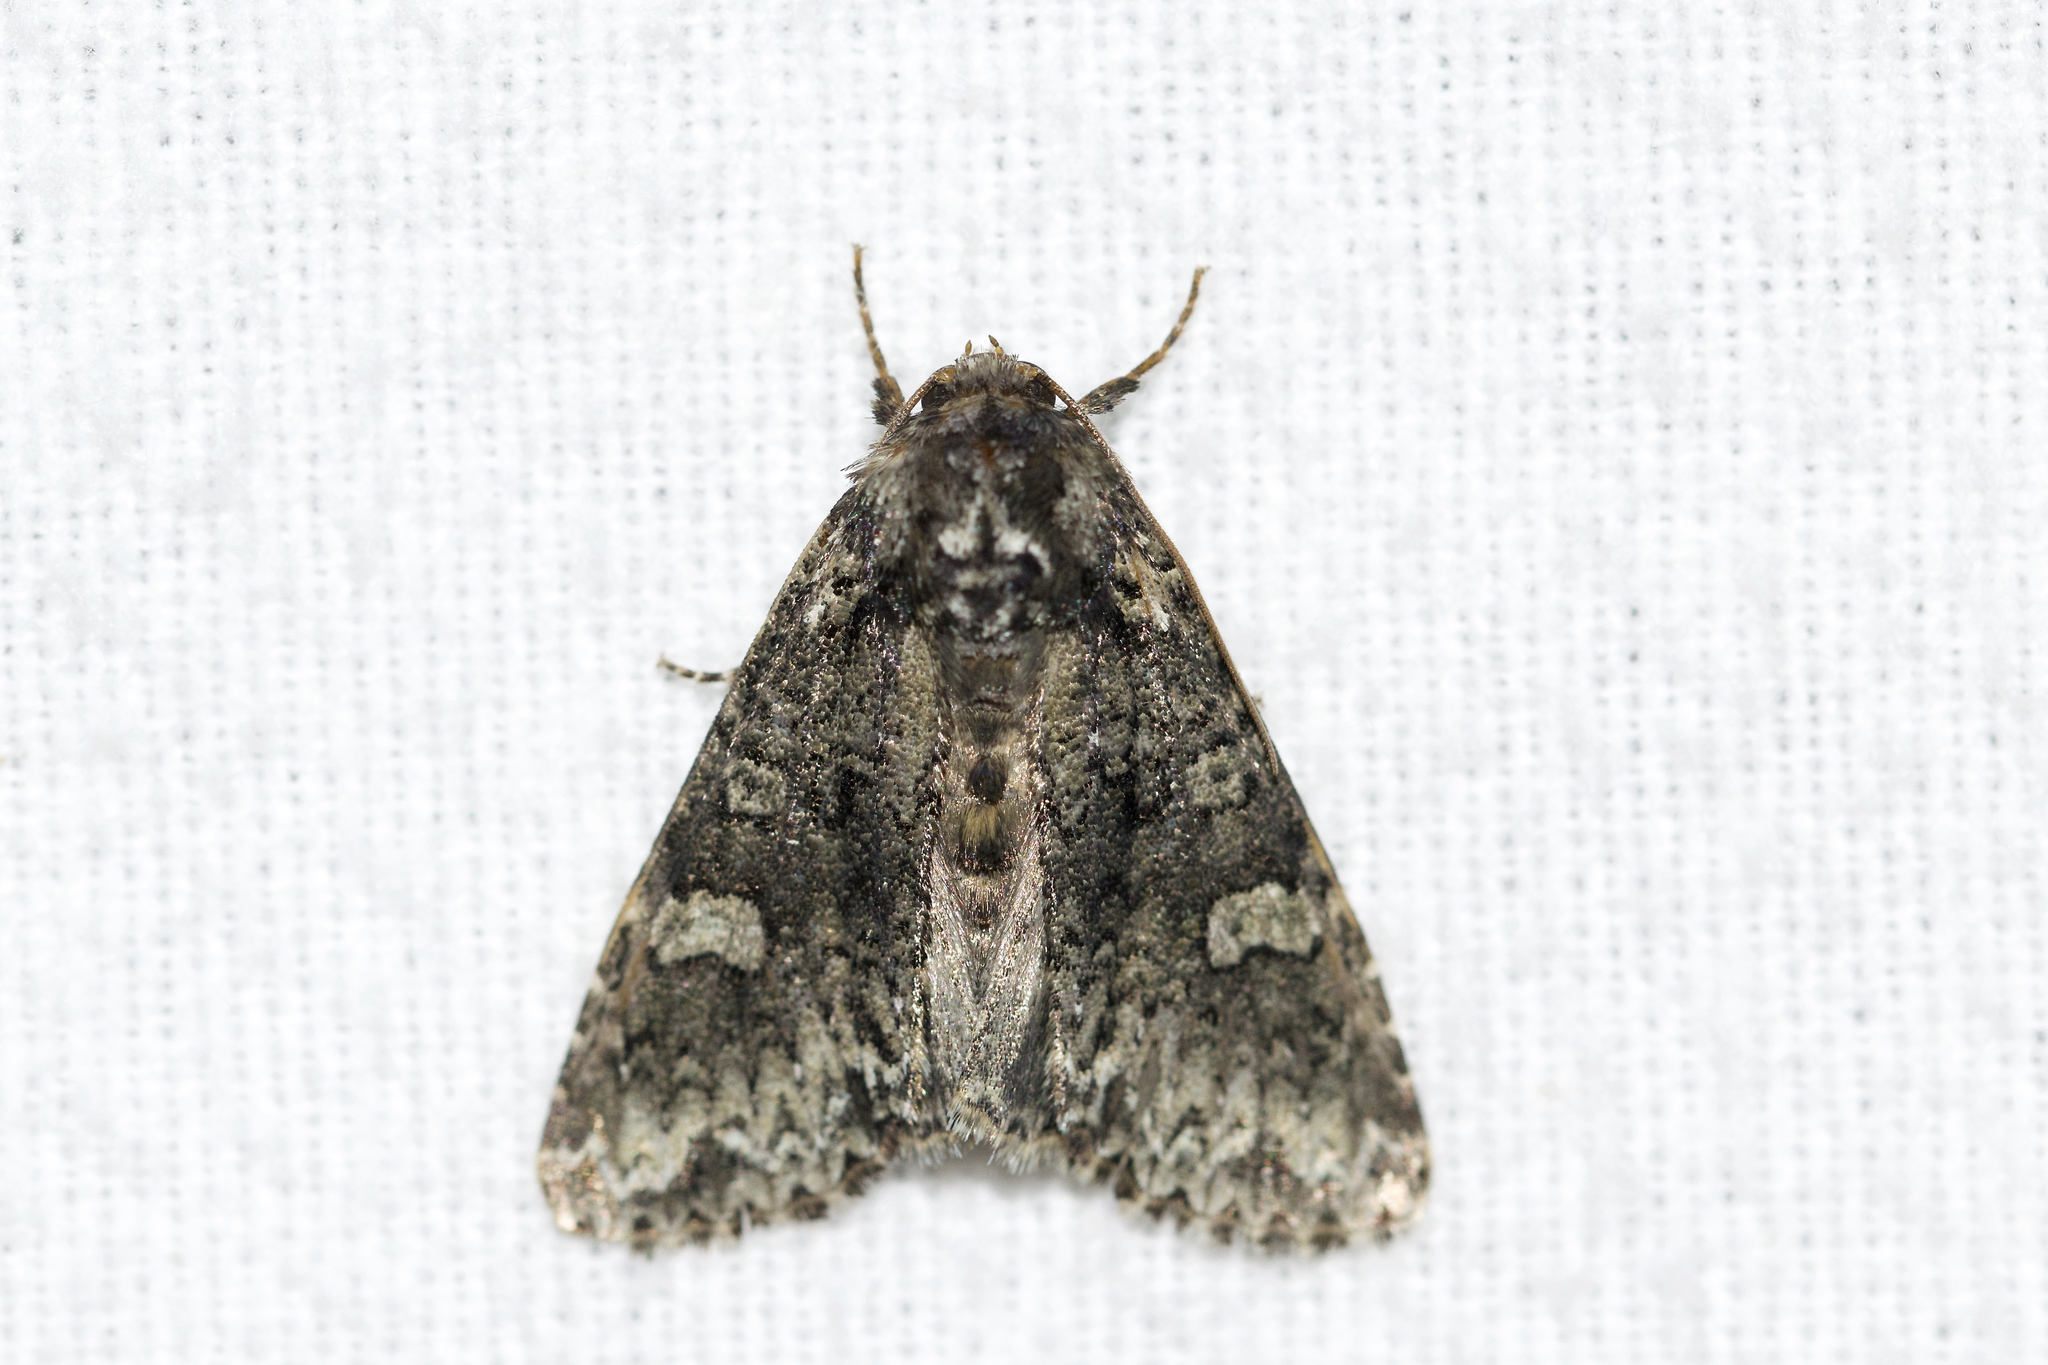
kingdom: Animalia
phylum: Arthropoda
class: Insecta
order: Lepidoptera
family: Noctuidae
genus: Melanchra
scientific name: Melanchra adjuncta
